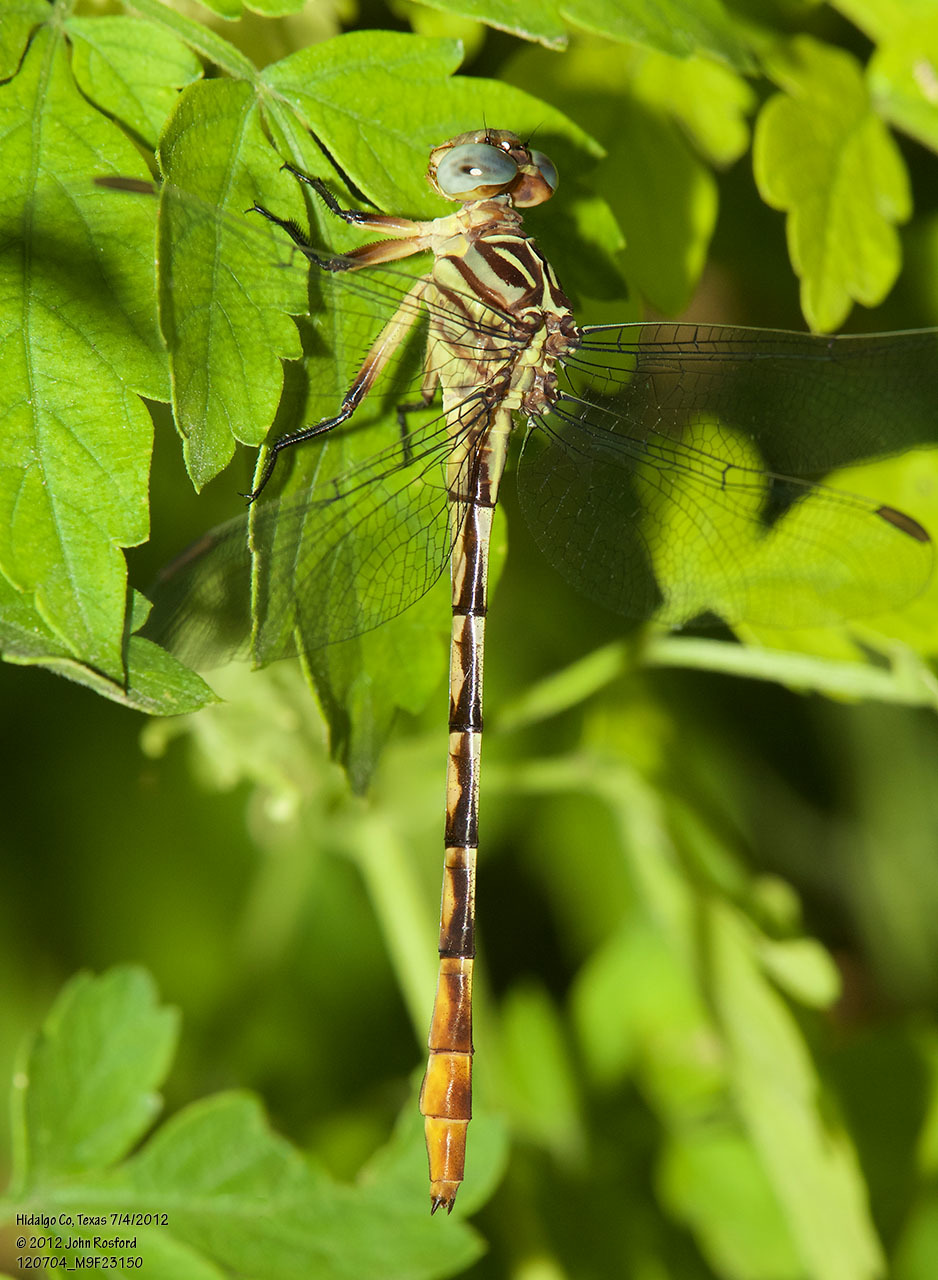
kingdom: Animalia
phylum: Arthropoda
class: Insecta
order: Odonata
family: Gomphidae
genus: Stylurus
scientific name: Stylurus plagiatus
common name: Russet-tipped clubtail
